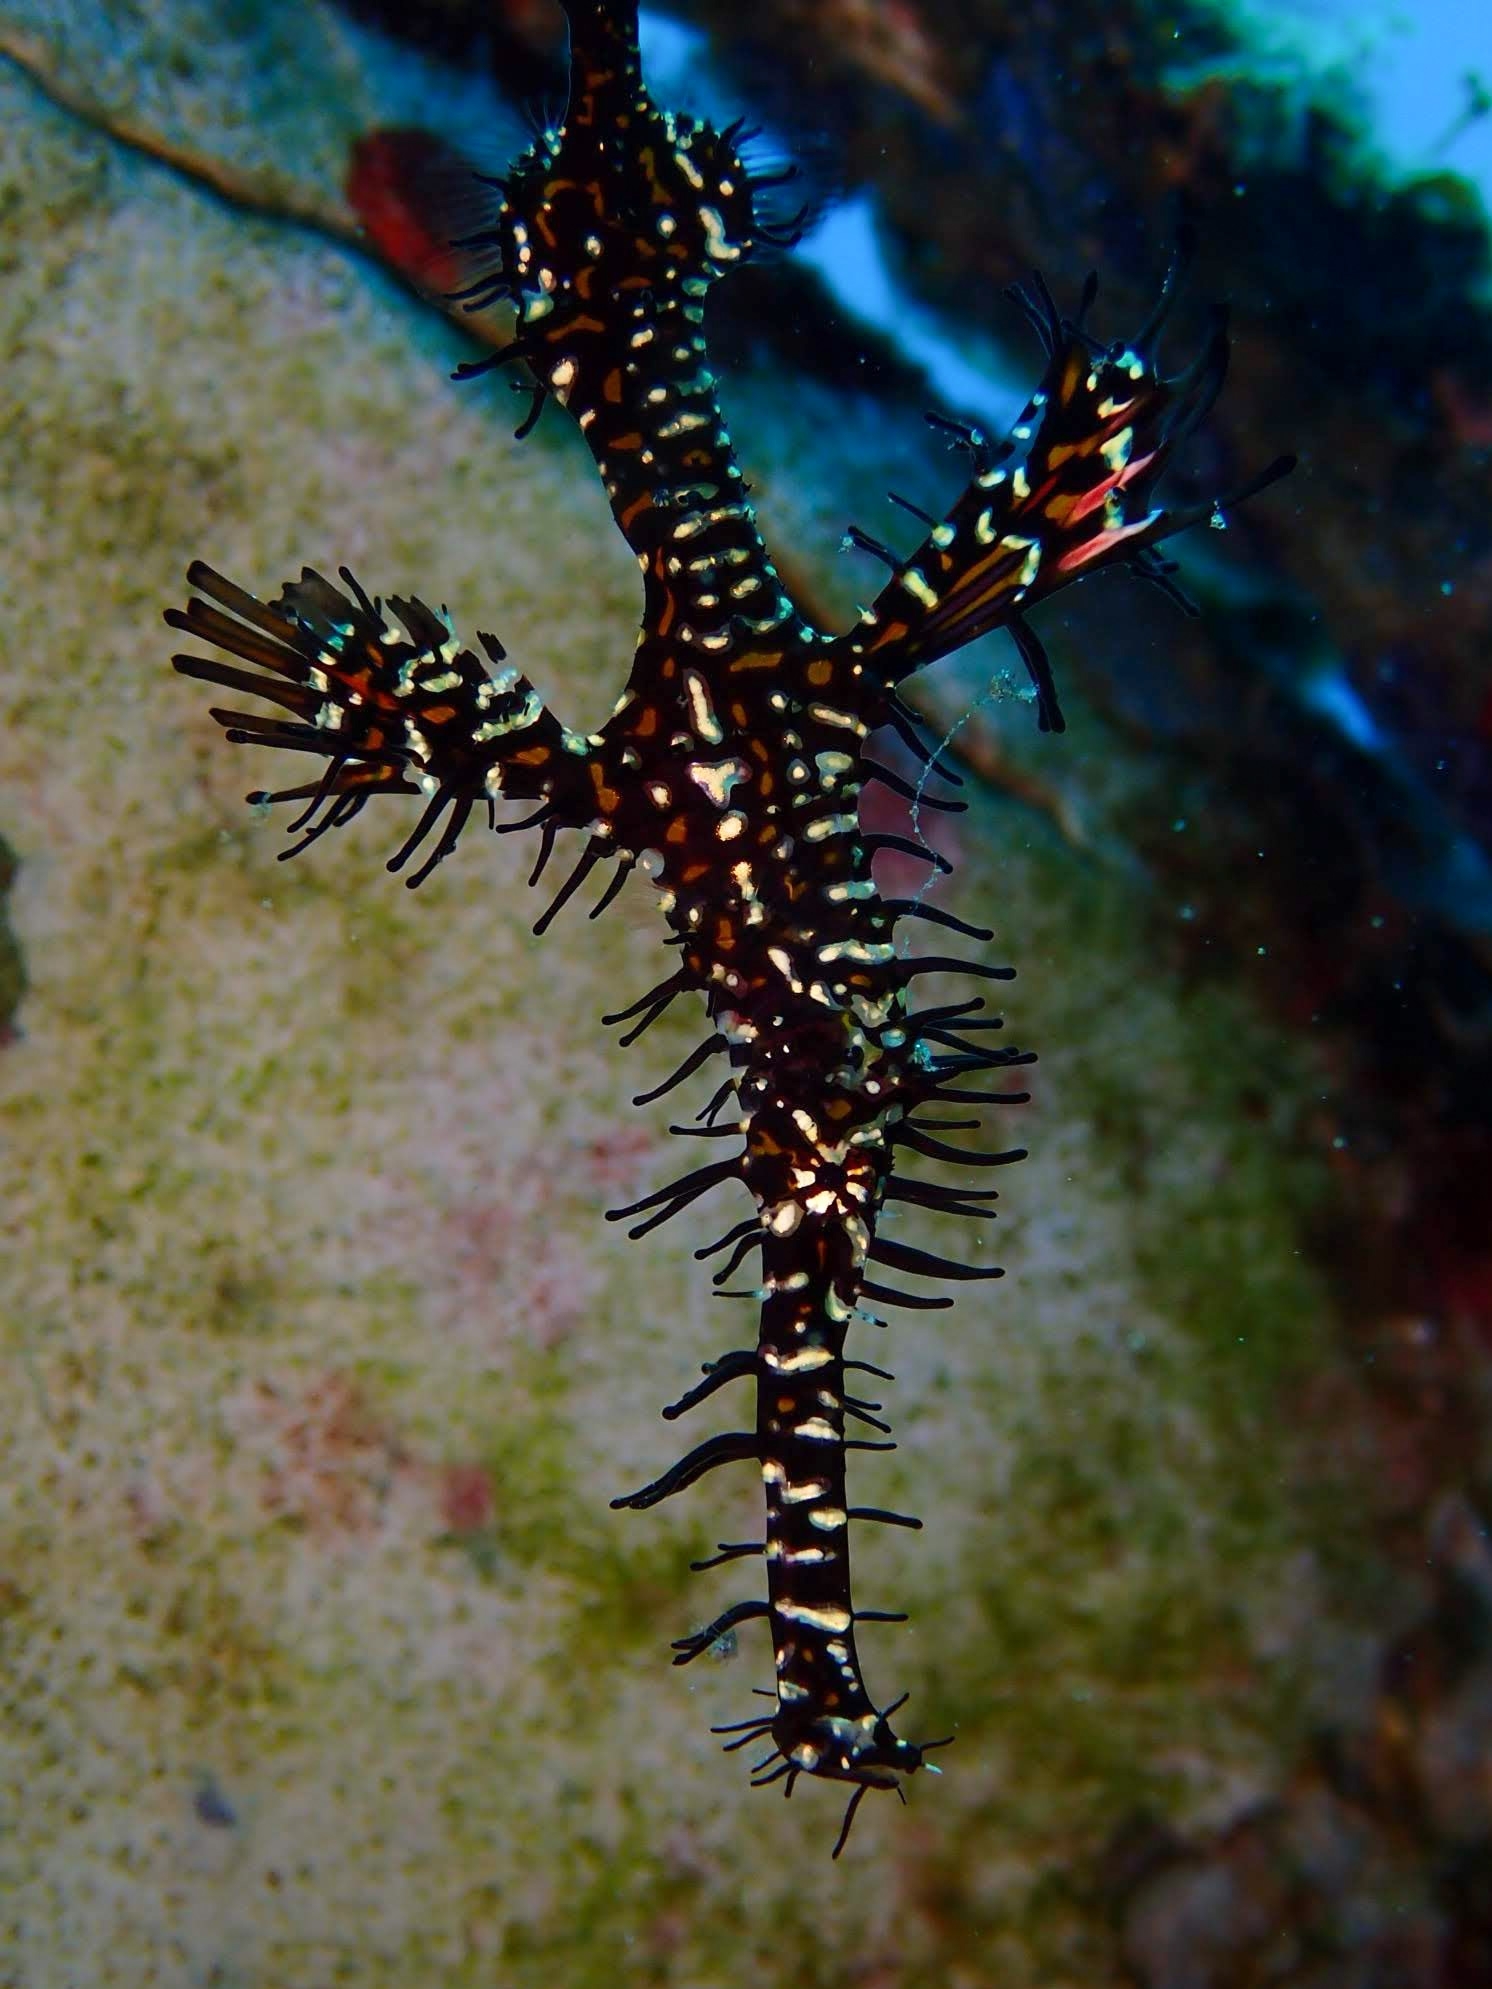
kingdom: Animalia
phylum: Chordata
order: Syngnathiformes
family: Solenostomidae
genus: Solenostomus
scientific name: Solenostomus paradoxus
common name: Ghost pipefish
